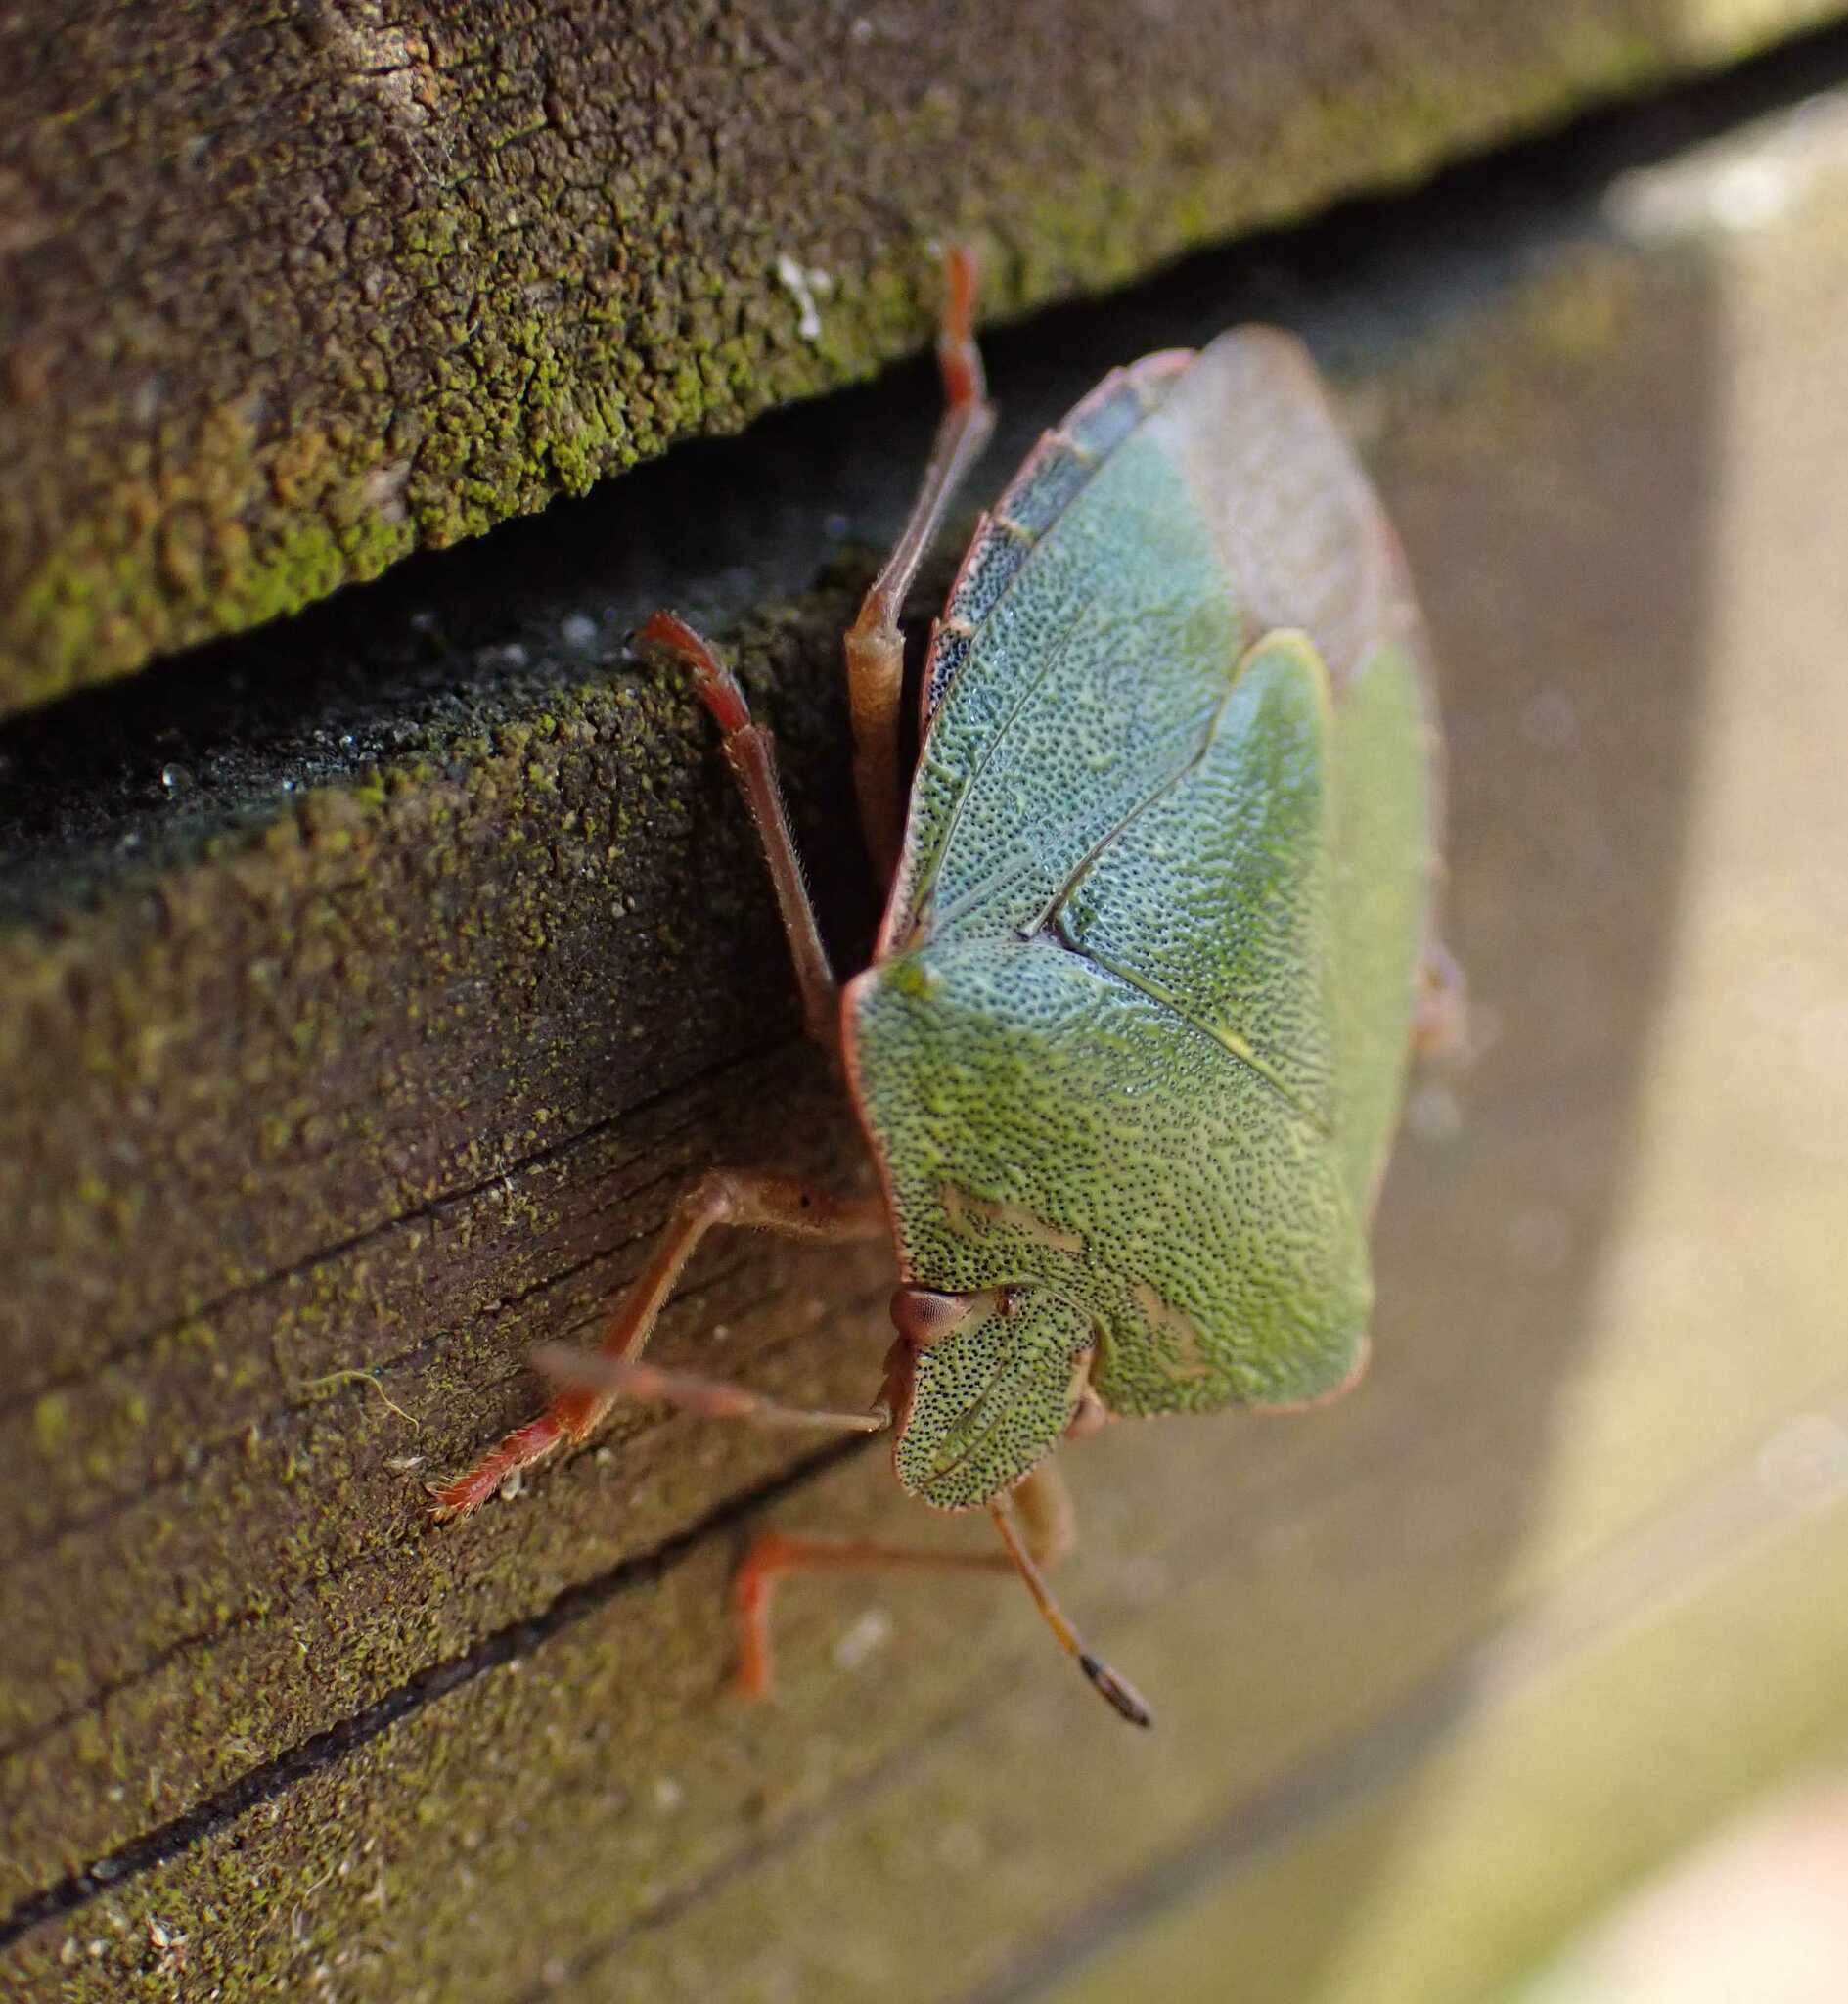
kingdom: Animalia
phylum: Arthropoda
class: Insecta
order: Hemiptera
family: Pentatomidae
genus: Palomena
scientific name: Palomena prasina
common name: Green shieldbug
